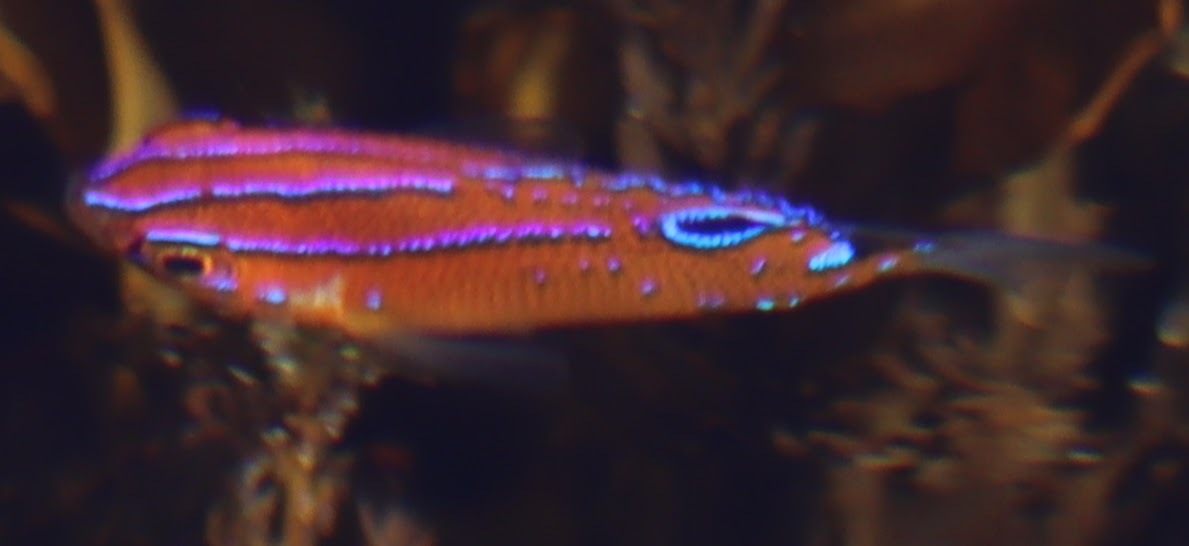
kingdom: Animalia
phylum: Chordata
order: Perciformes
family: Pomacentridae
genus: Parma
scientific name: Parma microlepis
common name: White-ear
